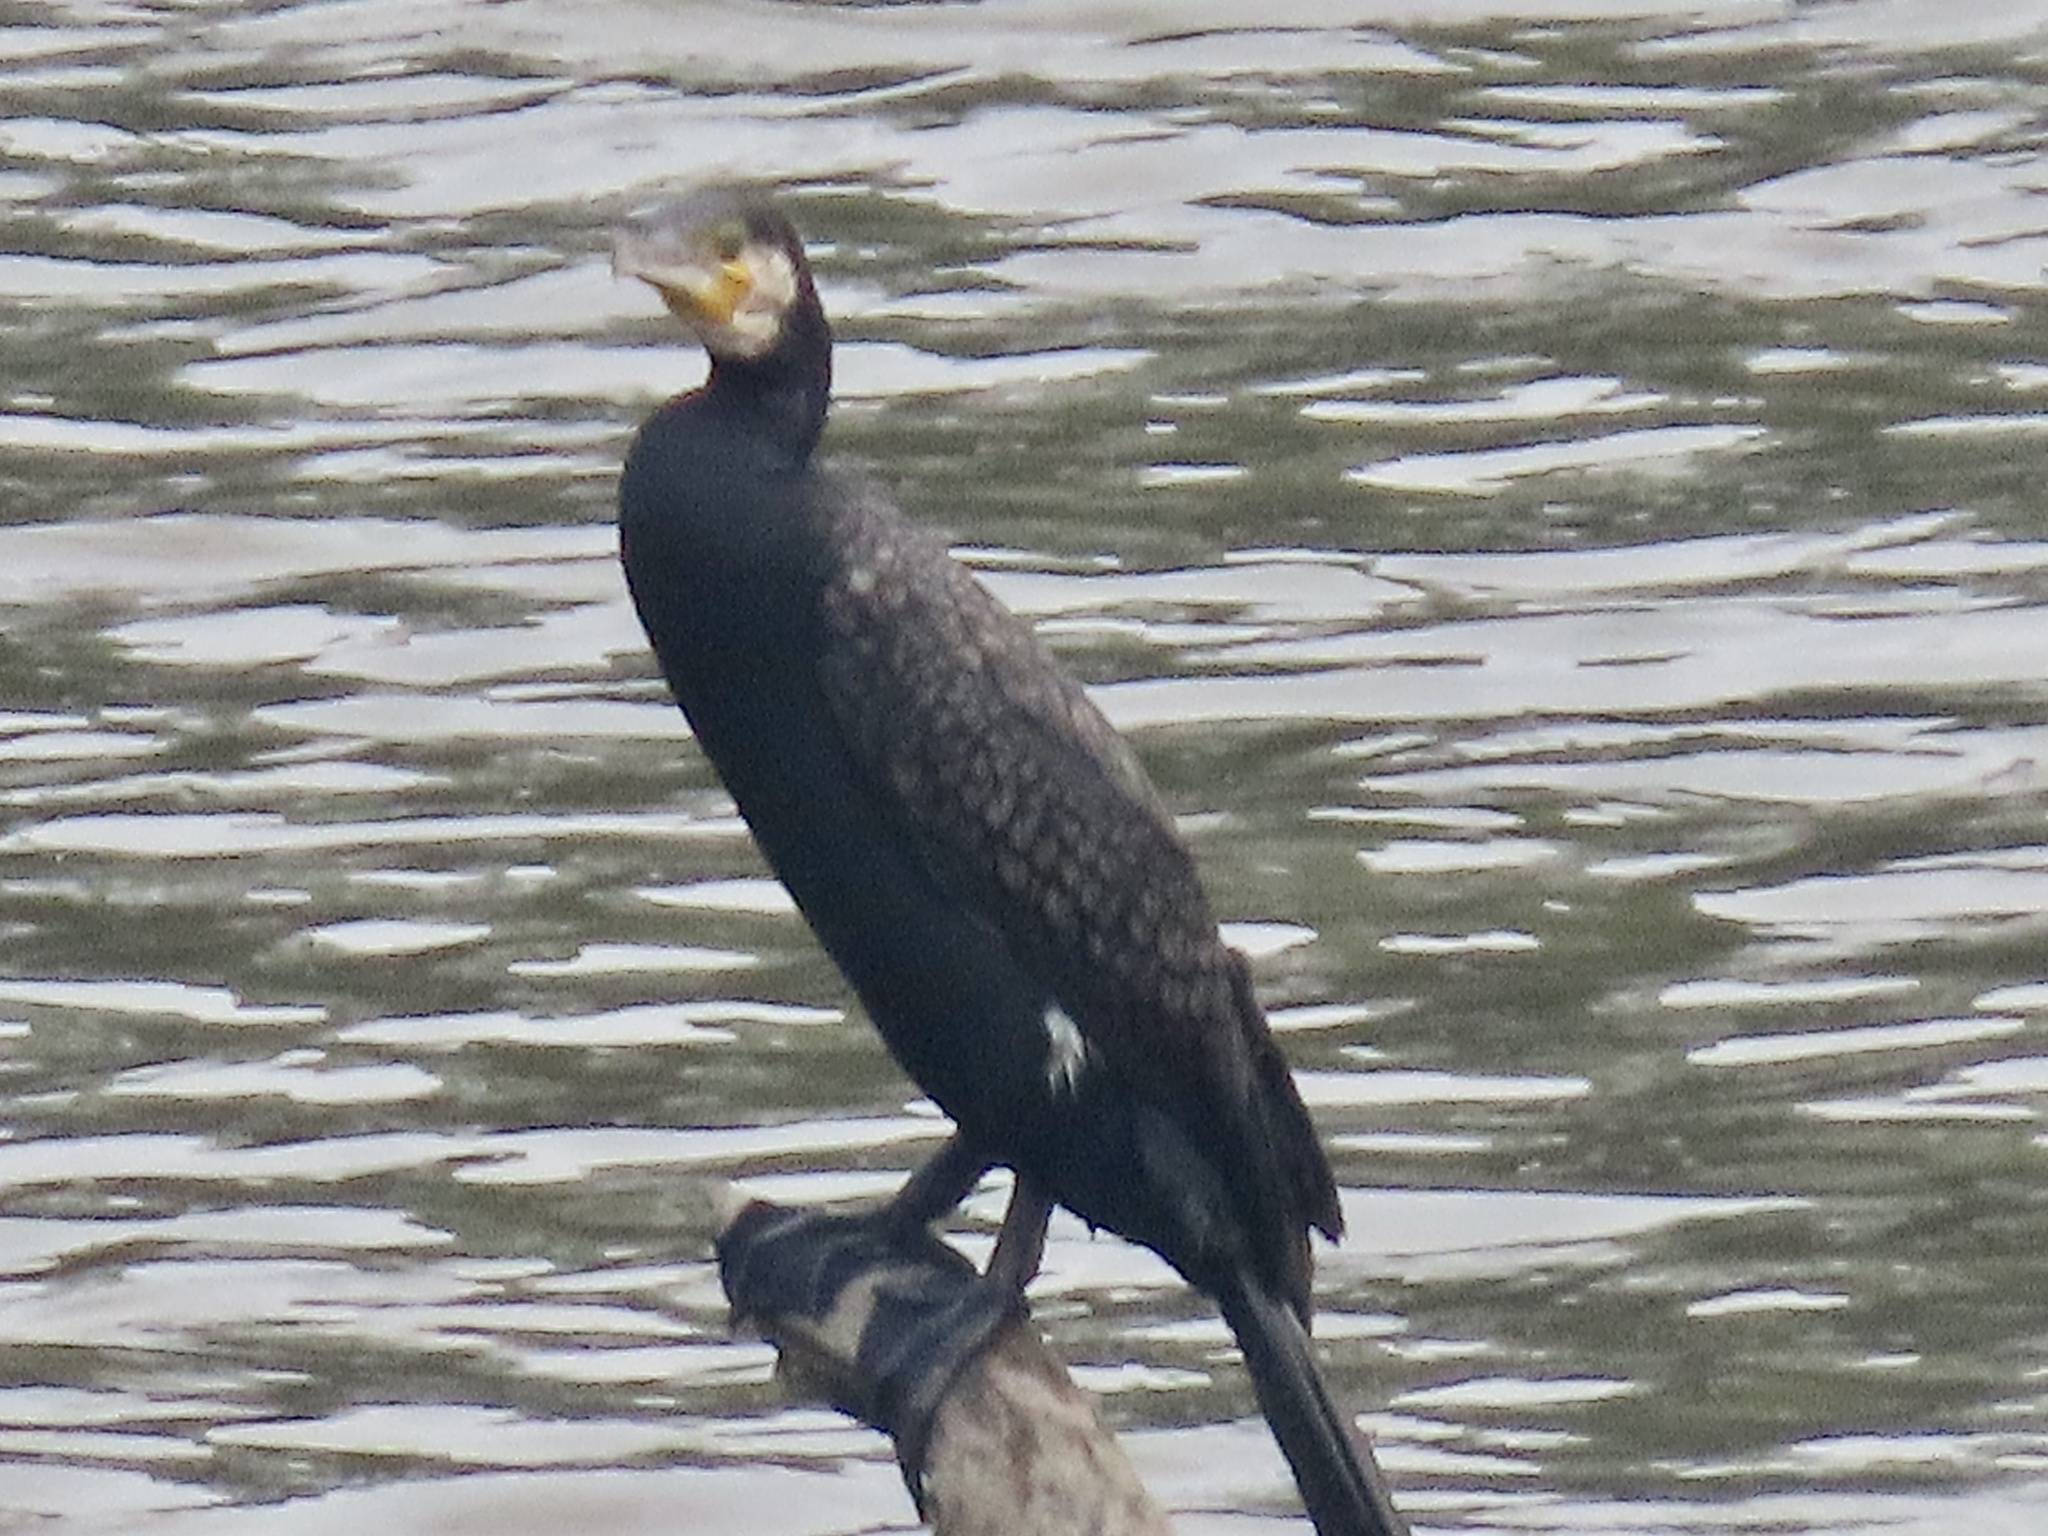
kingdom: Animalia
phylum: Chordata
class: Aves
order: Suliformes
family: Phalacrocoracidae
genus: Phalacrocorax
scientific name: Phalacrocorax carbo
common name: Great cormorant
